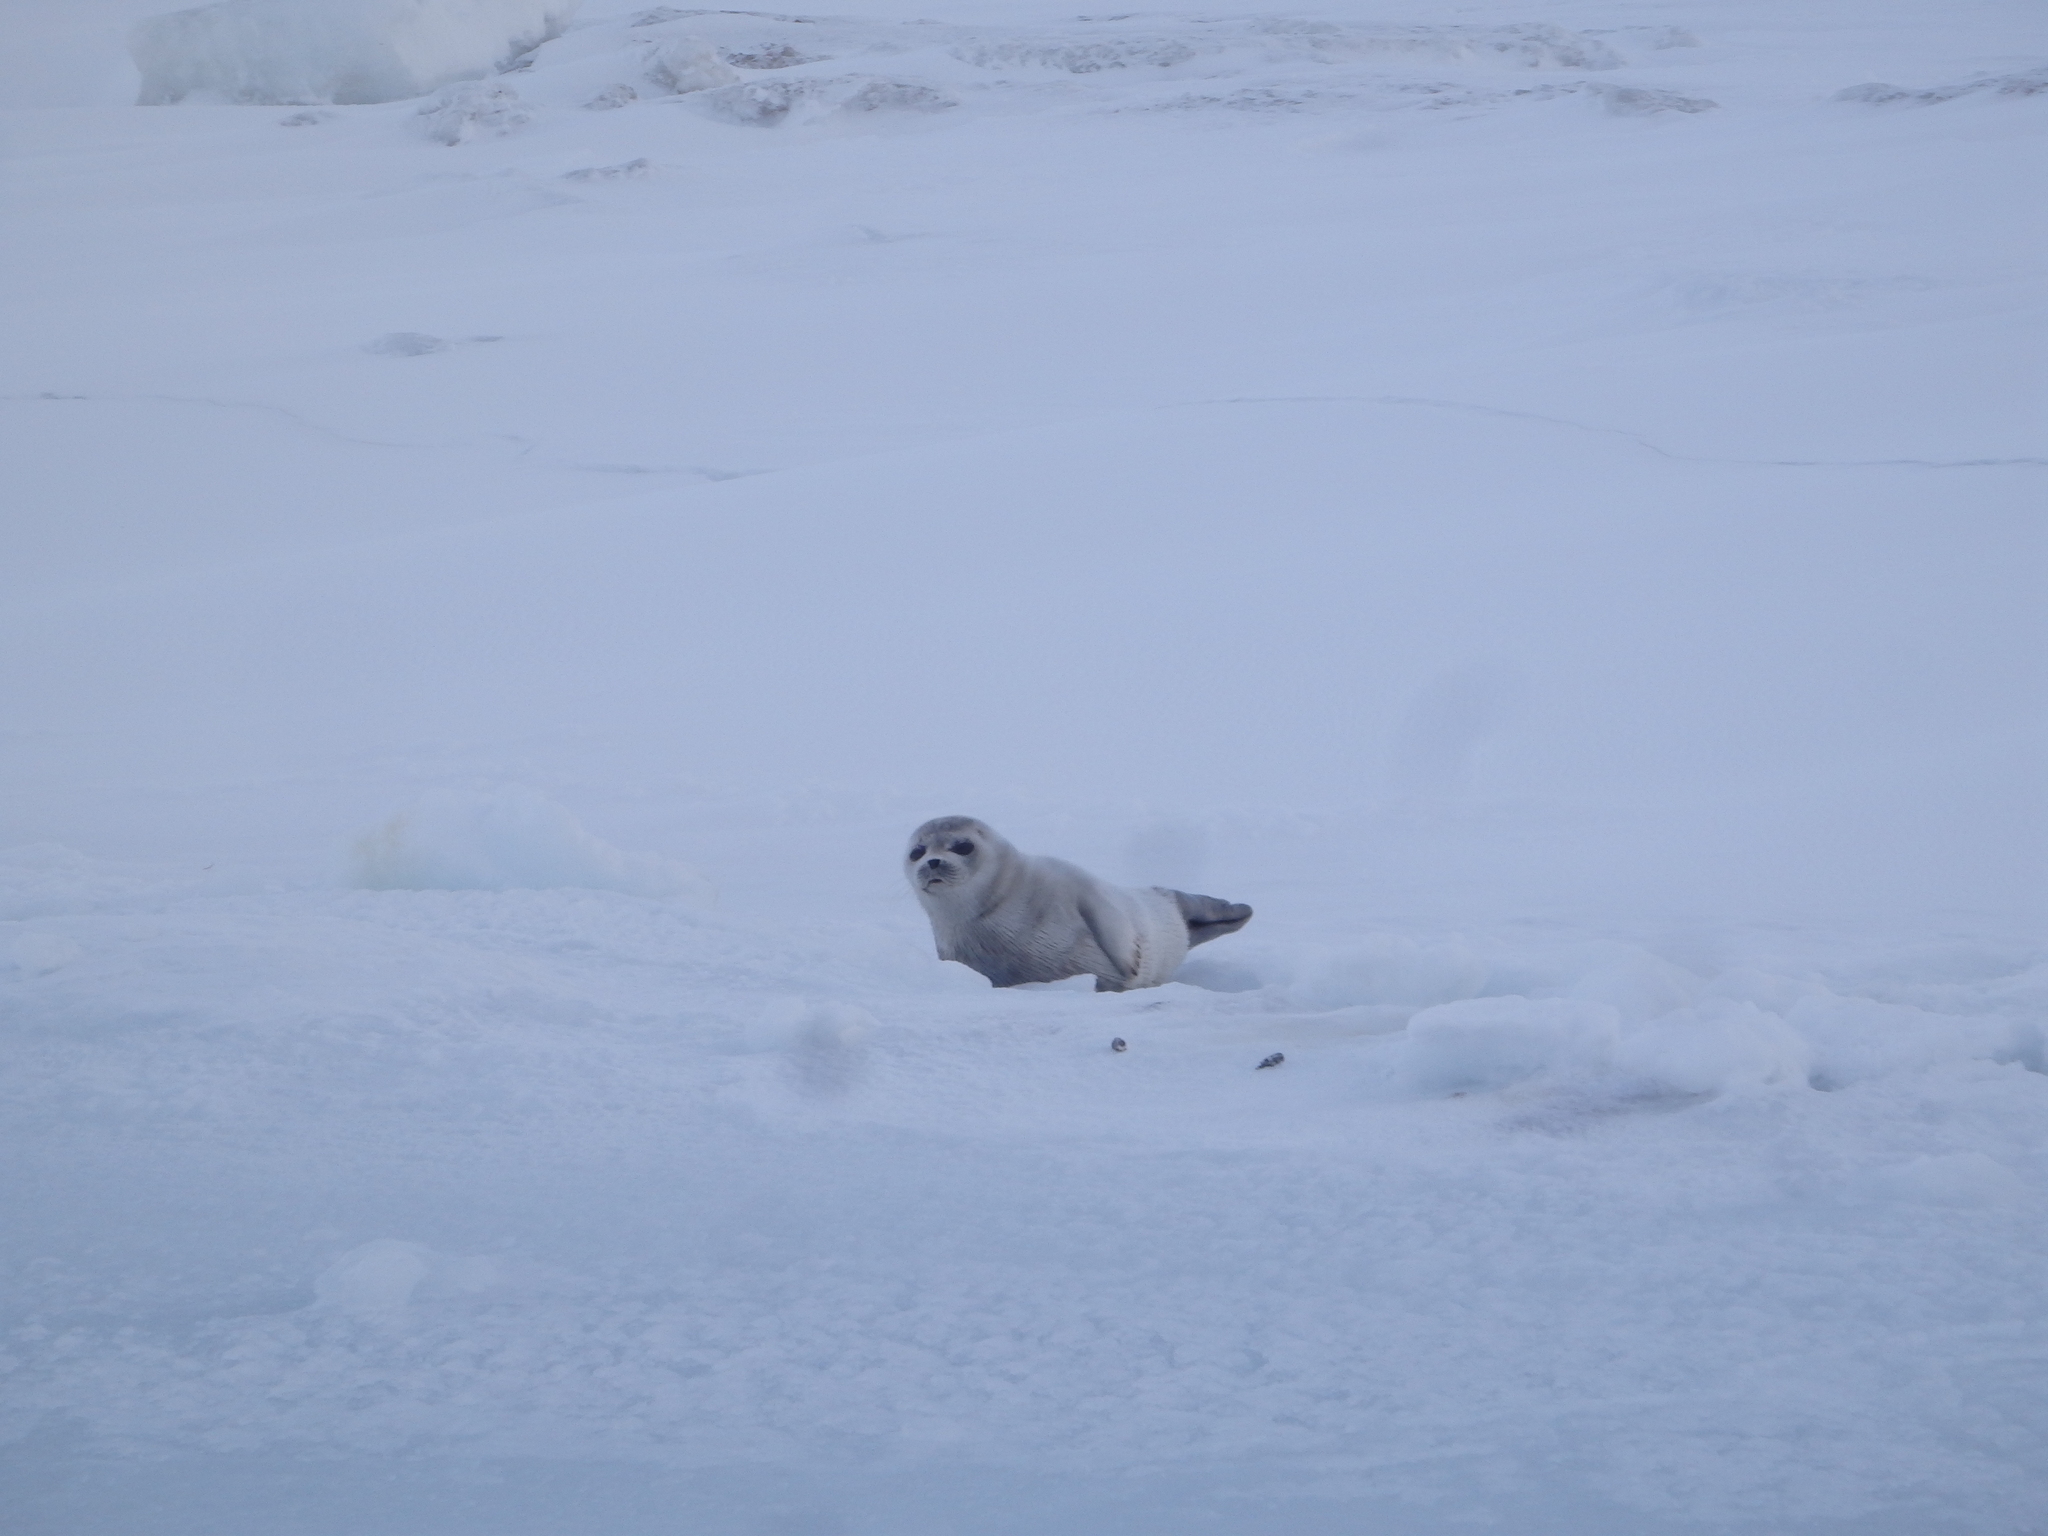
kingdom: Animalia
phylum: Chordata
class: Mammalia
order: Carnivora
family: Phocidae
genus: Pusa
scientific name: Pusa hispida
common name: Ringed seal
